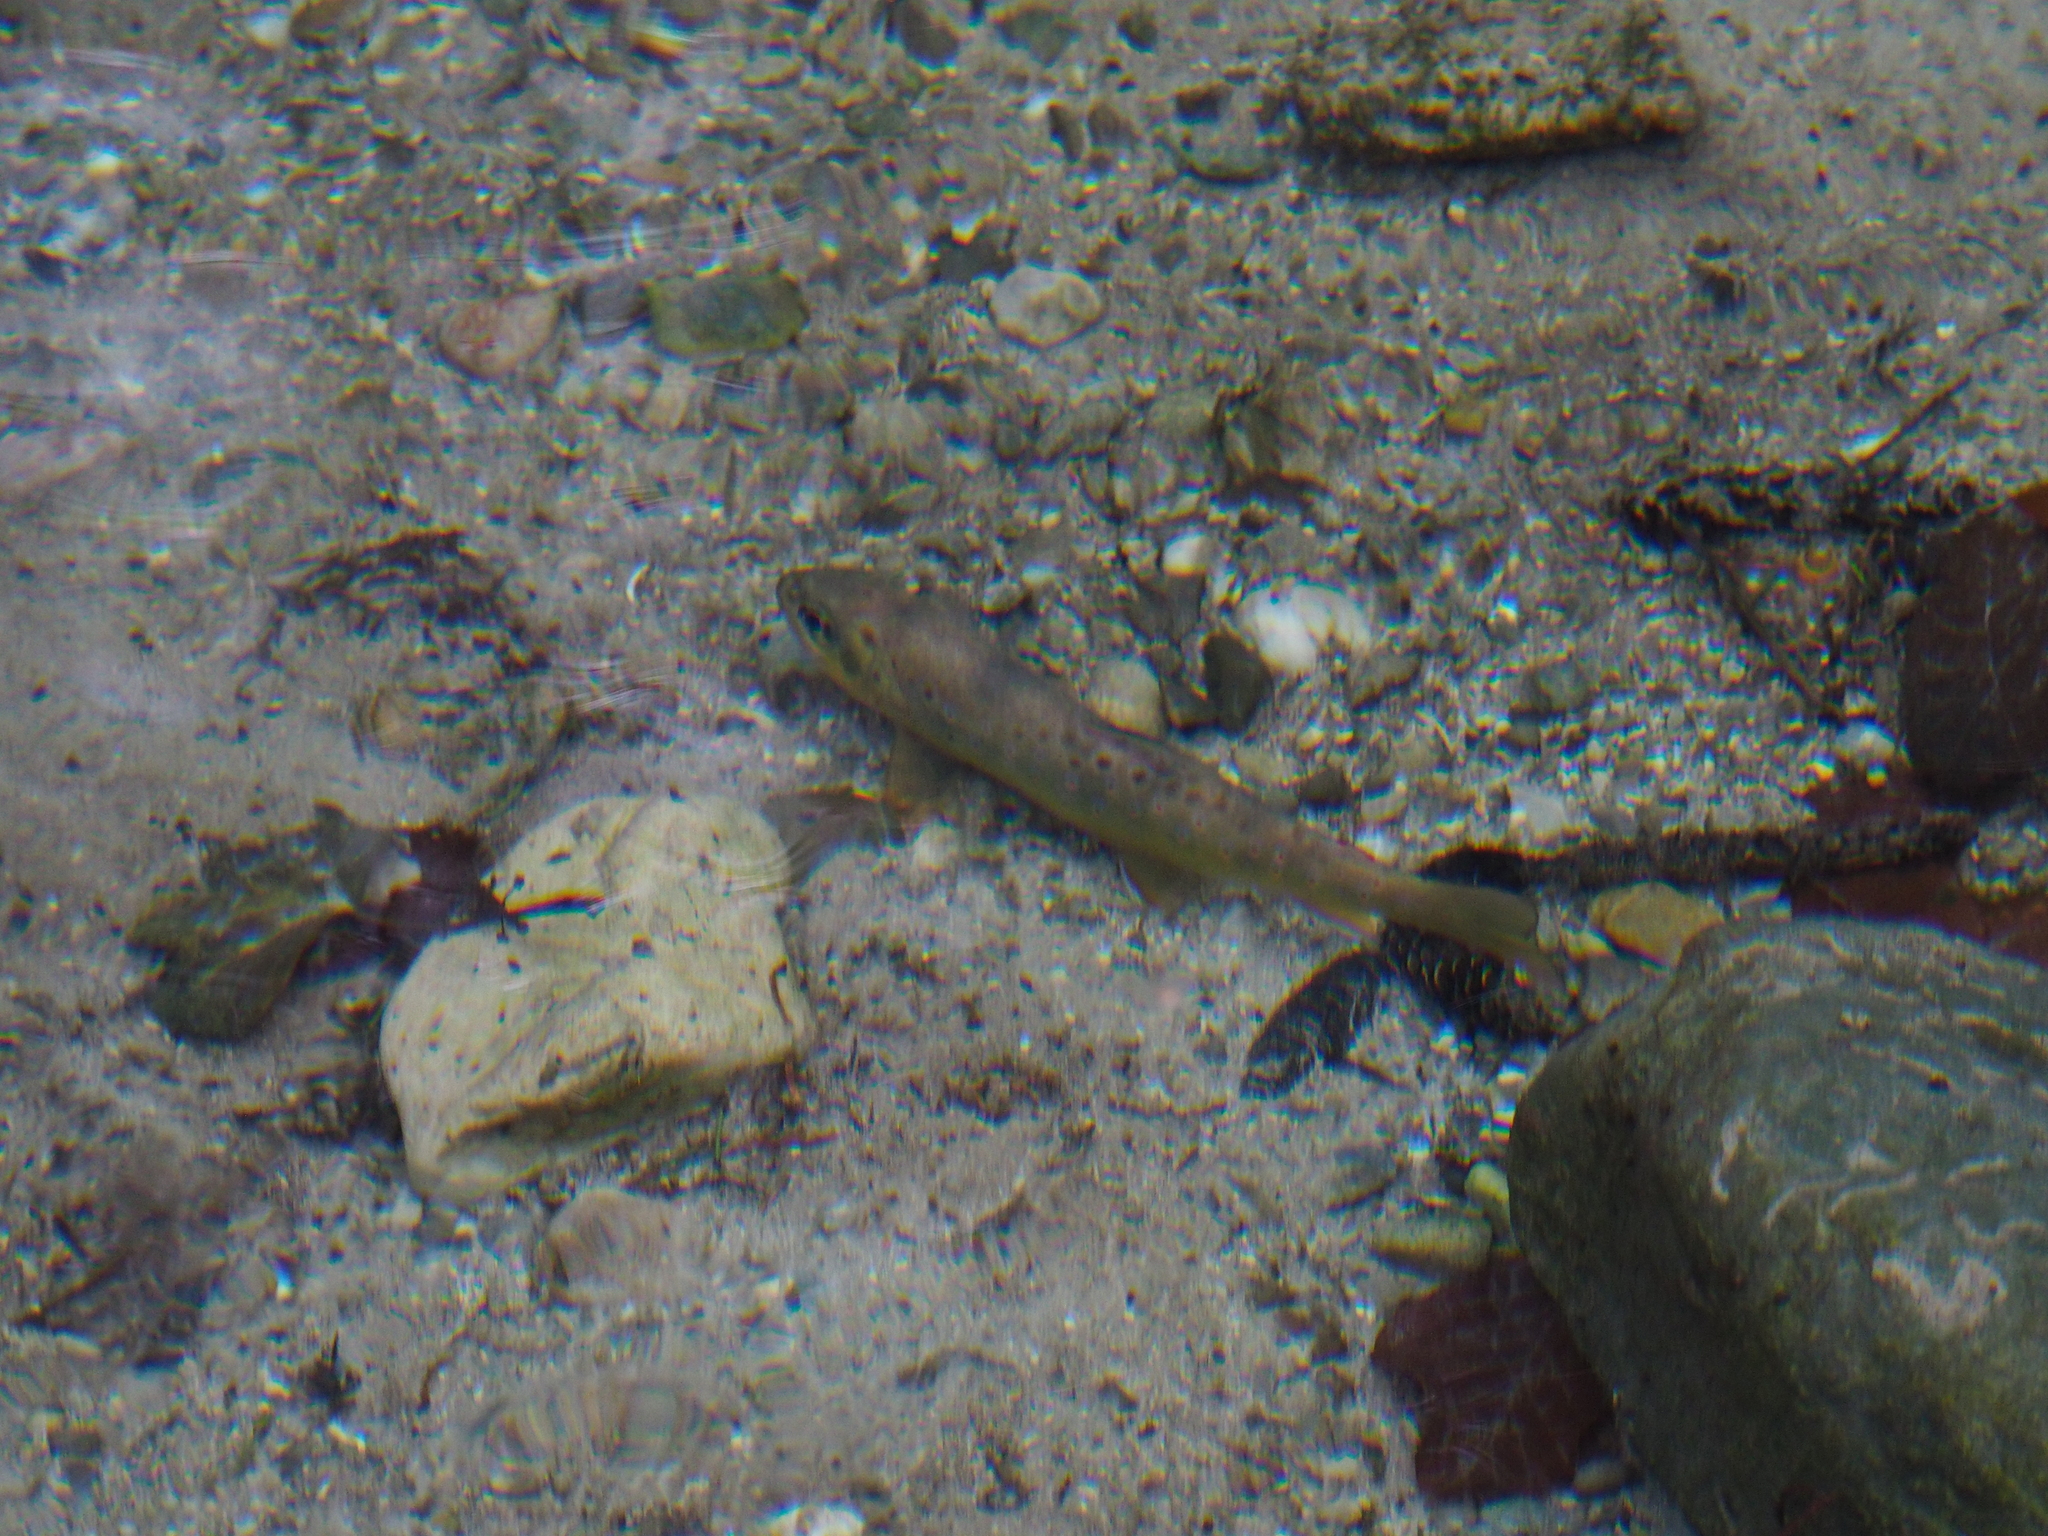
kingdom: Animalia
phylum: Chordata
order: Salmoniformes
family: Salmonidae
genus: Salmo
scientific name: Salmo trutta
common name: Brown trout
